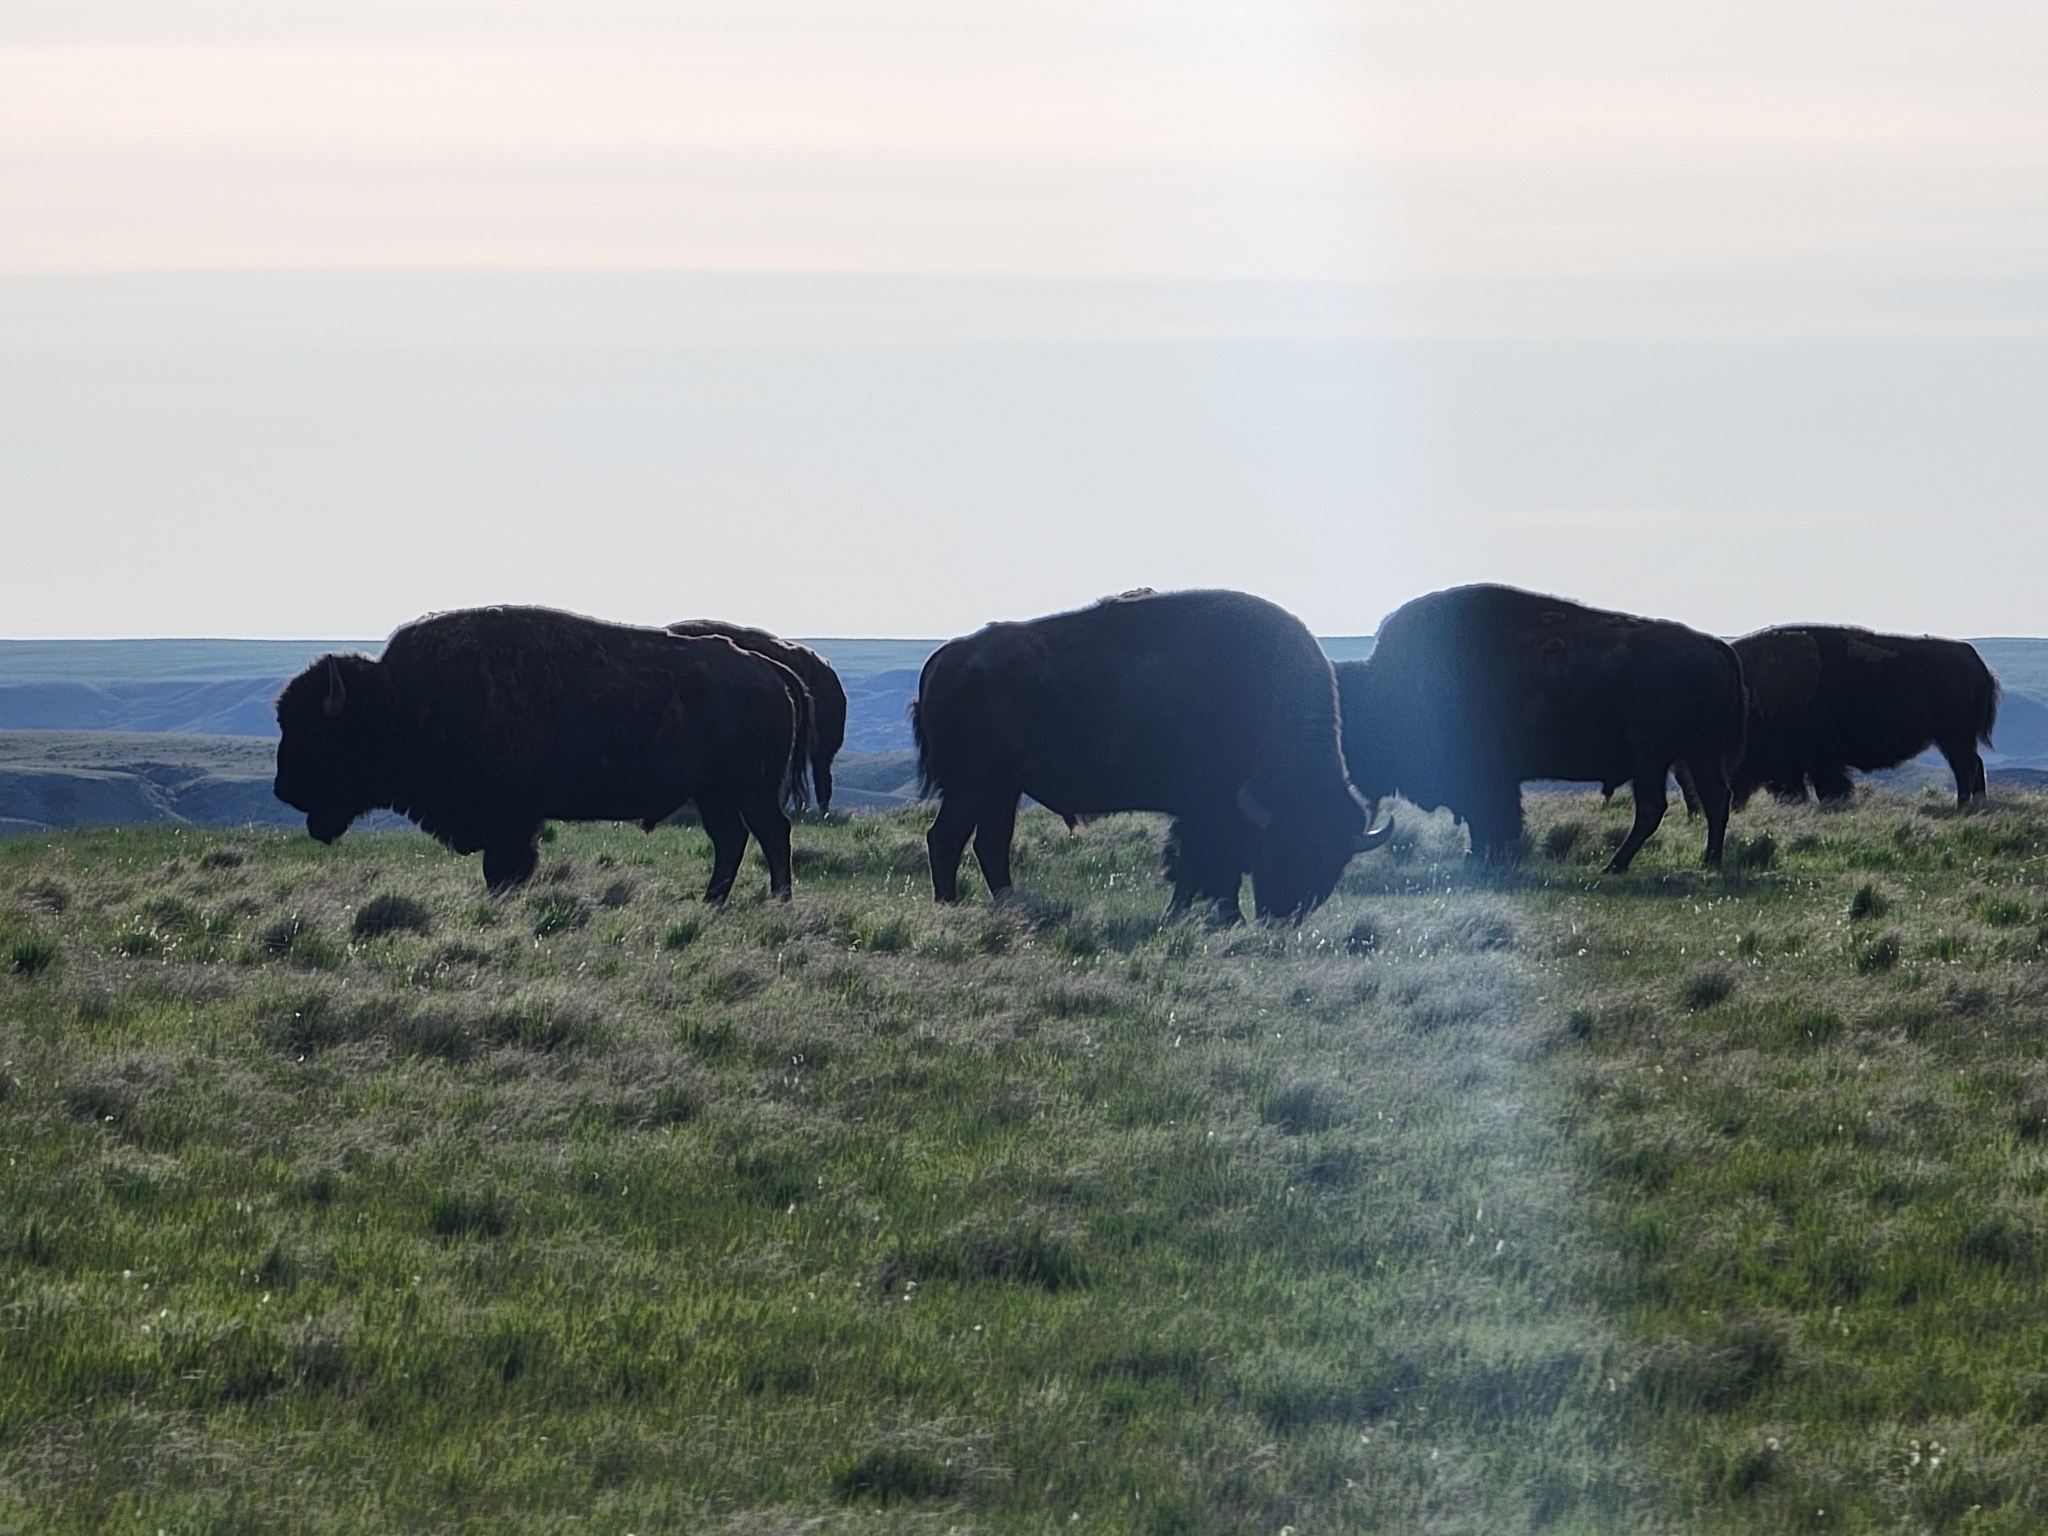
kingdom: Animalia
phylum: Chordata
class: Mammalia
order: Artiodactyla
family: Bovidae
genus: Bison
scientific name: Bison bison
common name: American bison
